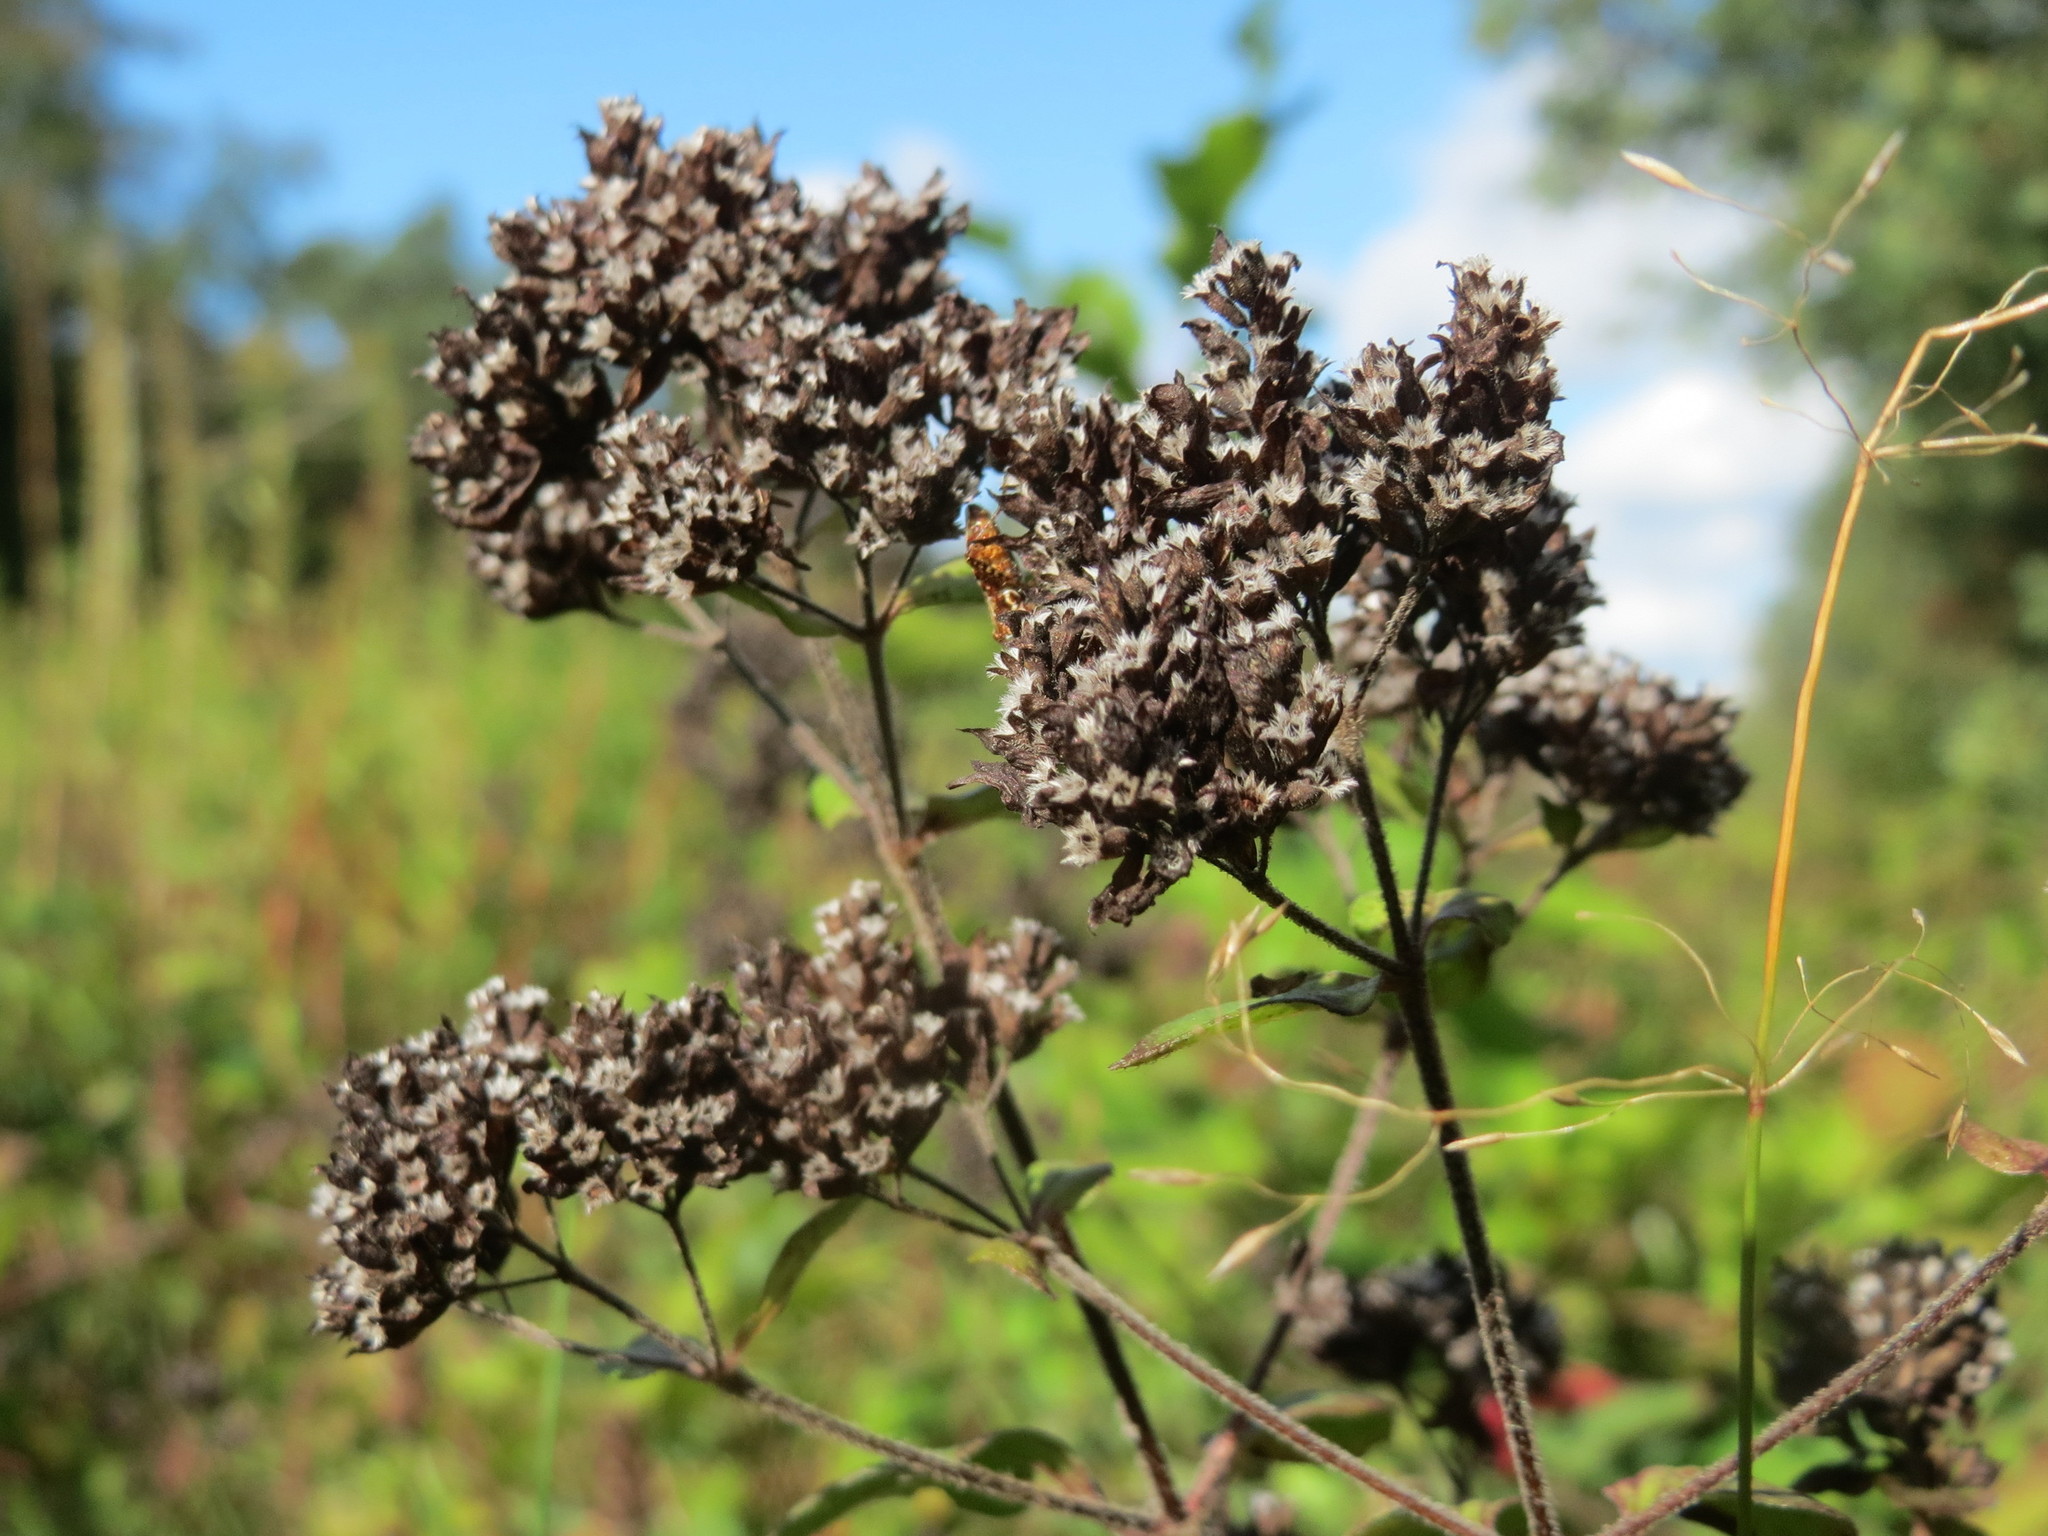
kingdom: Plantae
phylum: Tracheophyta
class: Magnoliopsida
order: Lamiales
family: Lamiaceae
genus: Origanum
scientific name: Origanum vulgare
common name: Wild marjoram
